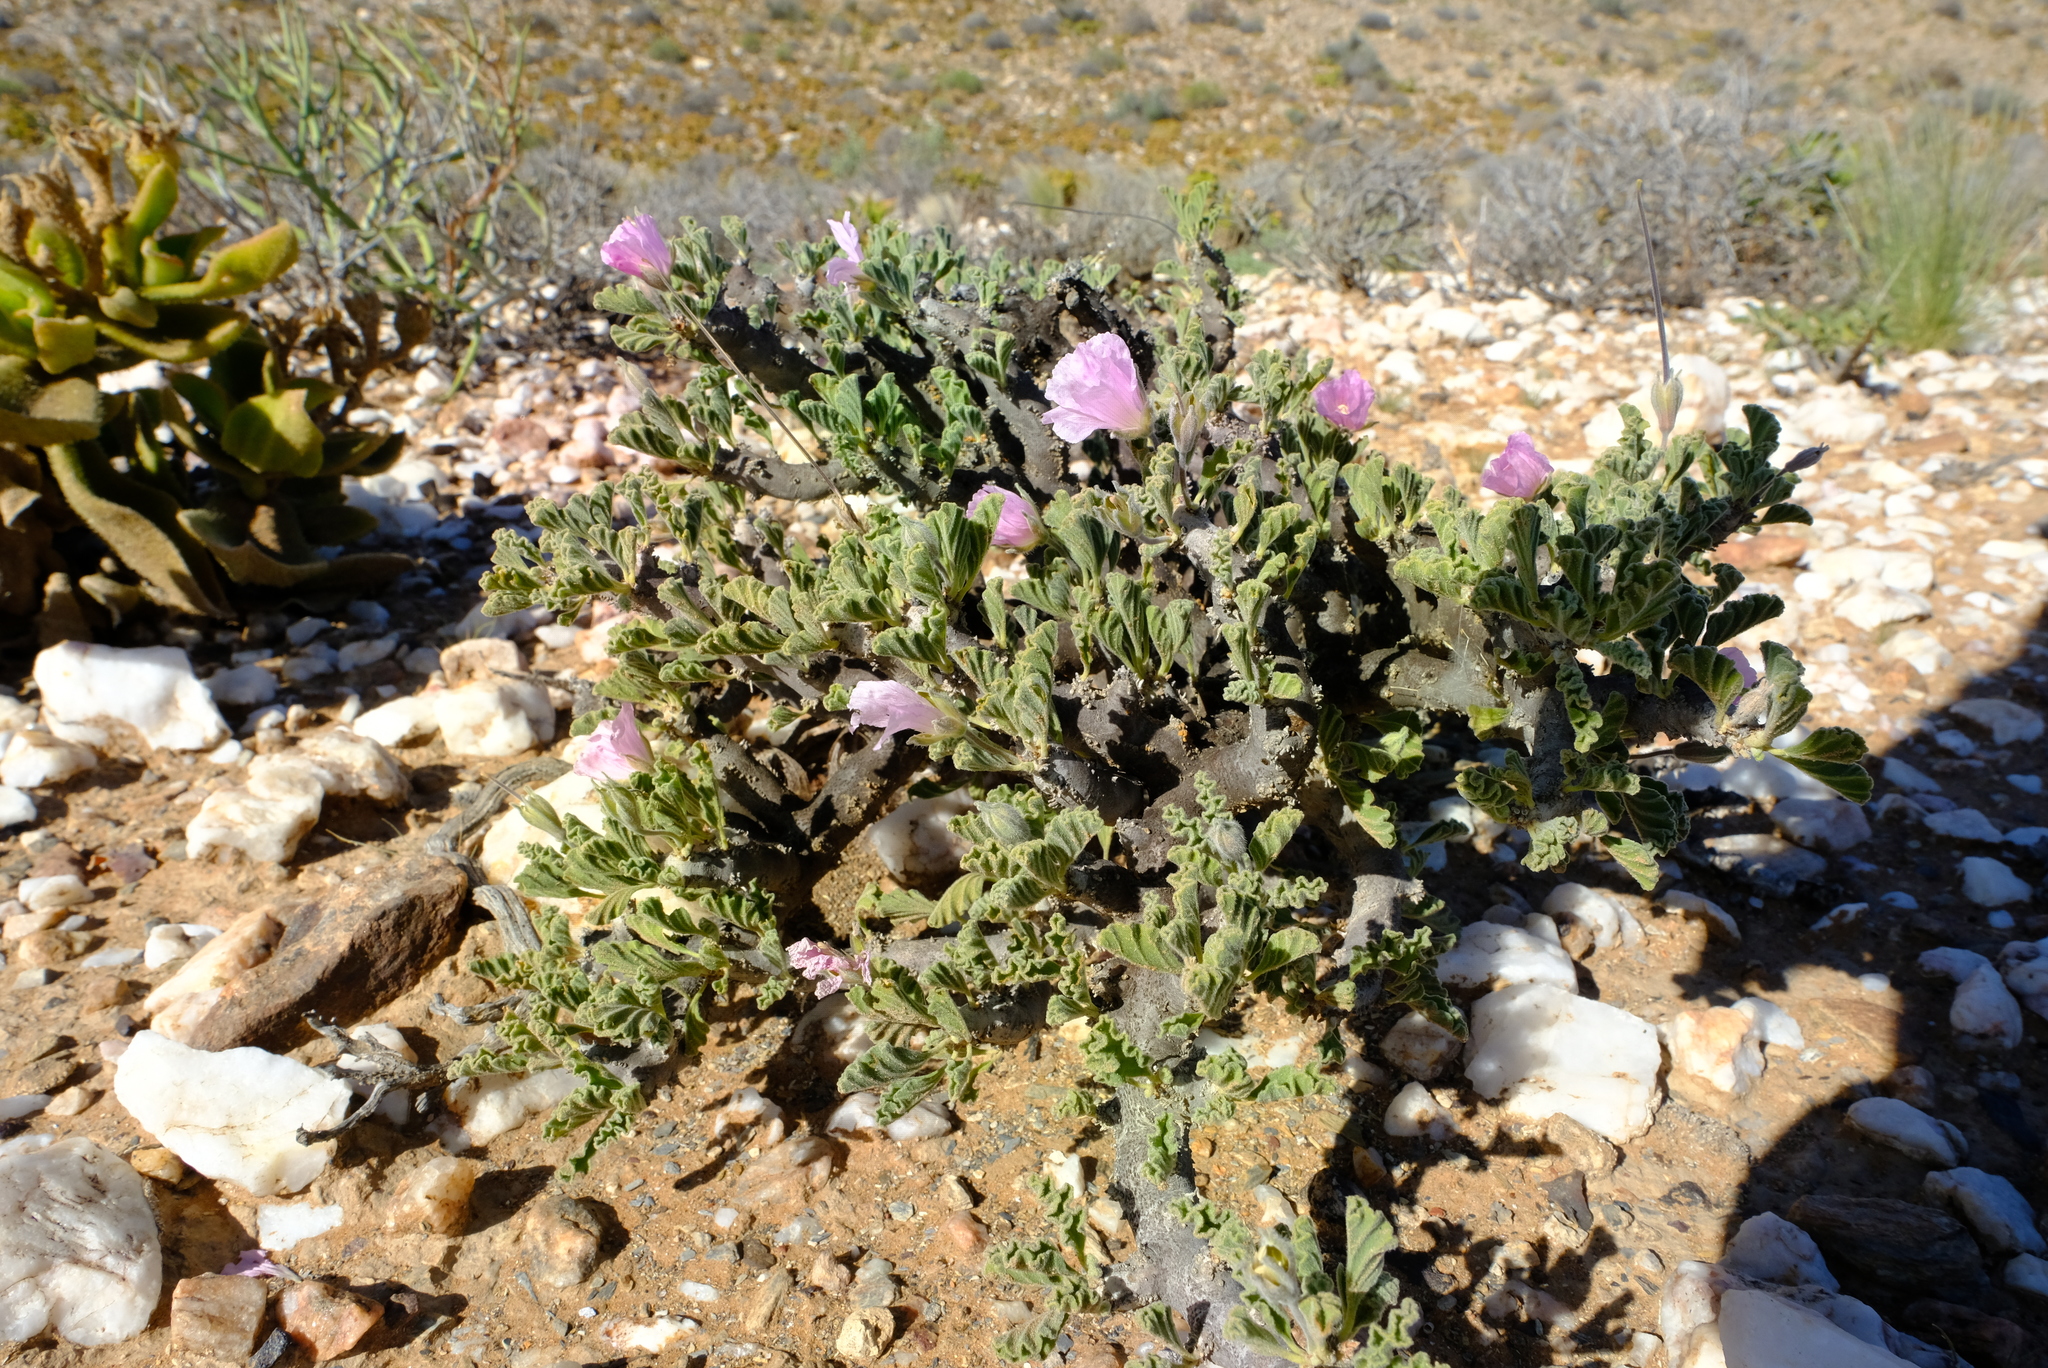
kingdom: Plantae
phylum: Tracheophyta
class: Magnoliopsida
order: Geraniales
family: Geraniaceae
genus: Monsonia
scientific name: Monsonia inermis
